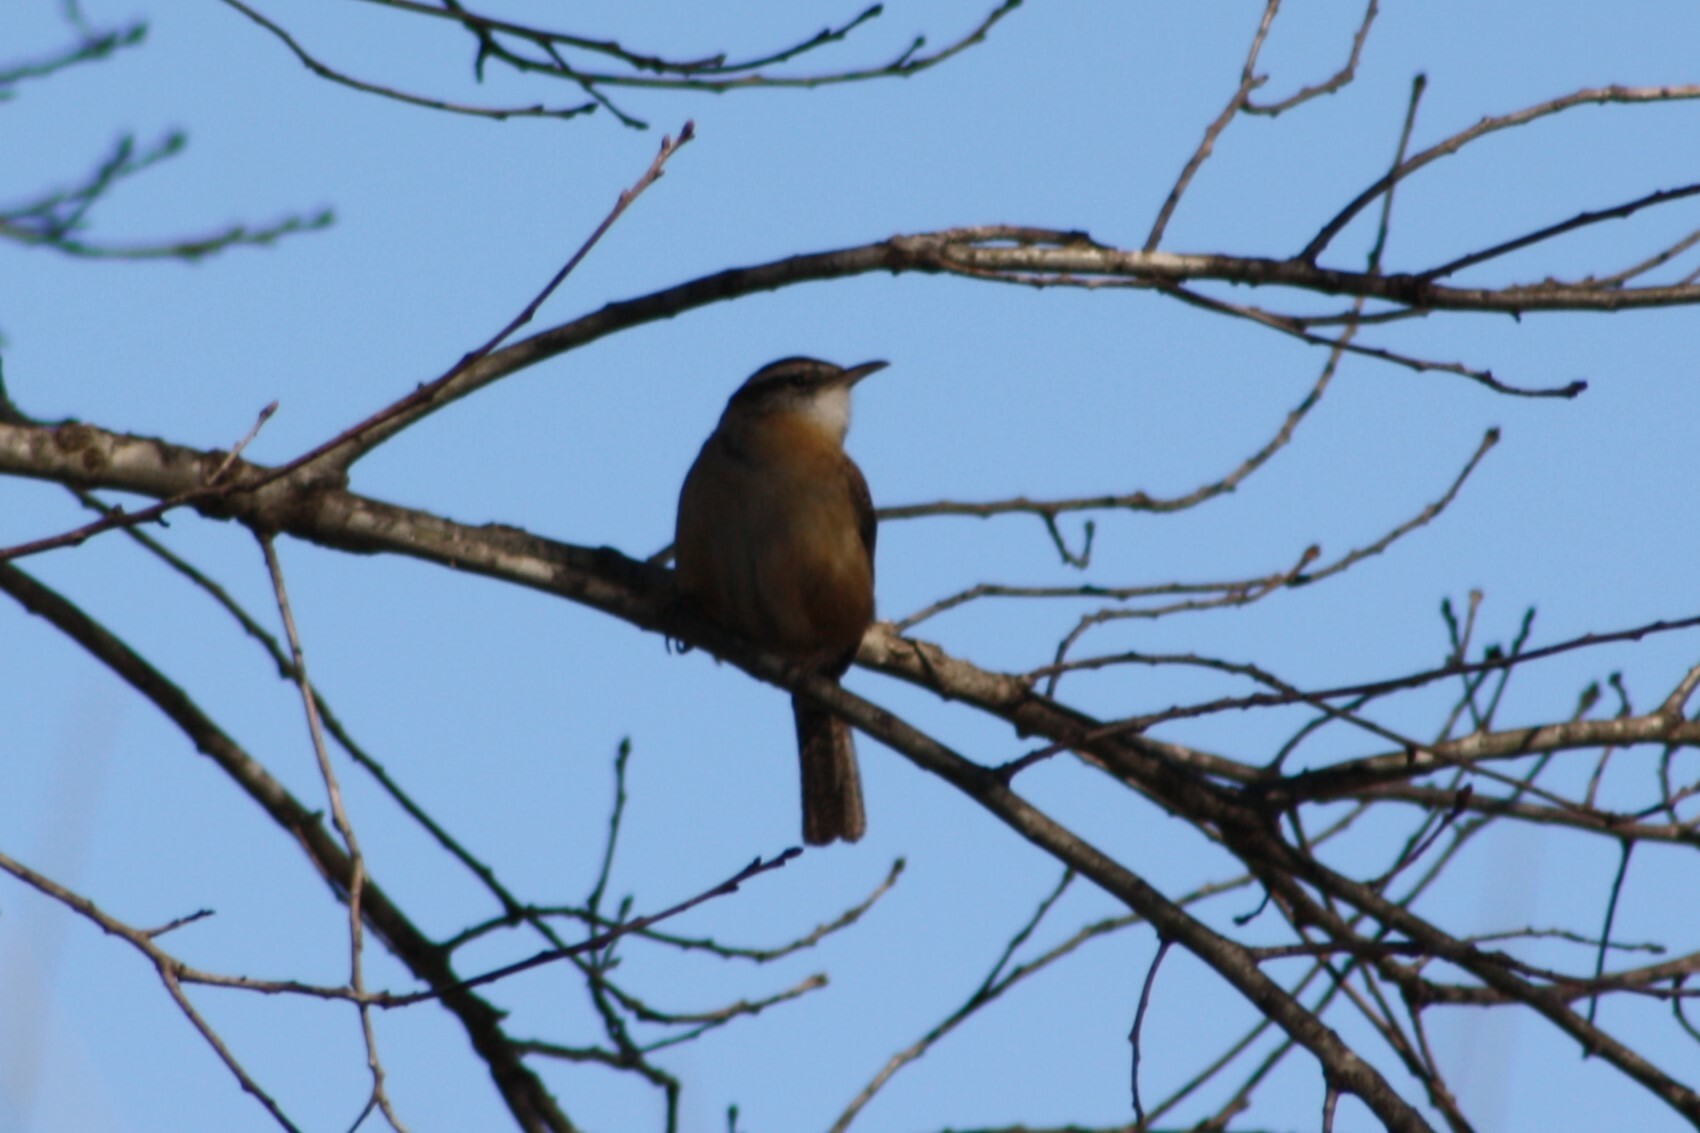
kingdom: Animalia
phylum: Chordata
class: Aves
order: Passeriformes
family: Troglodytidae
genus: Thryothorus
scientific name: Thryothorus ludovicianus
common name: Carolina wren
